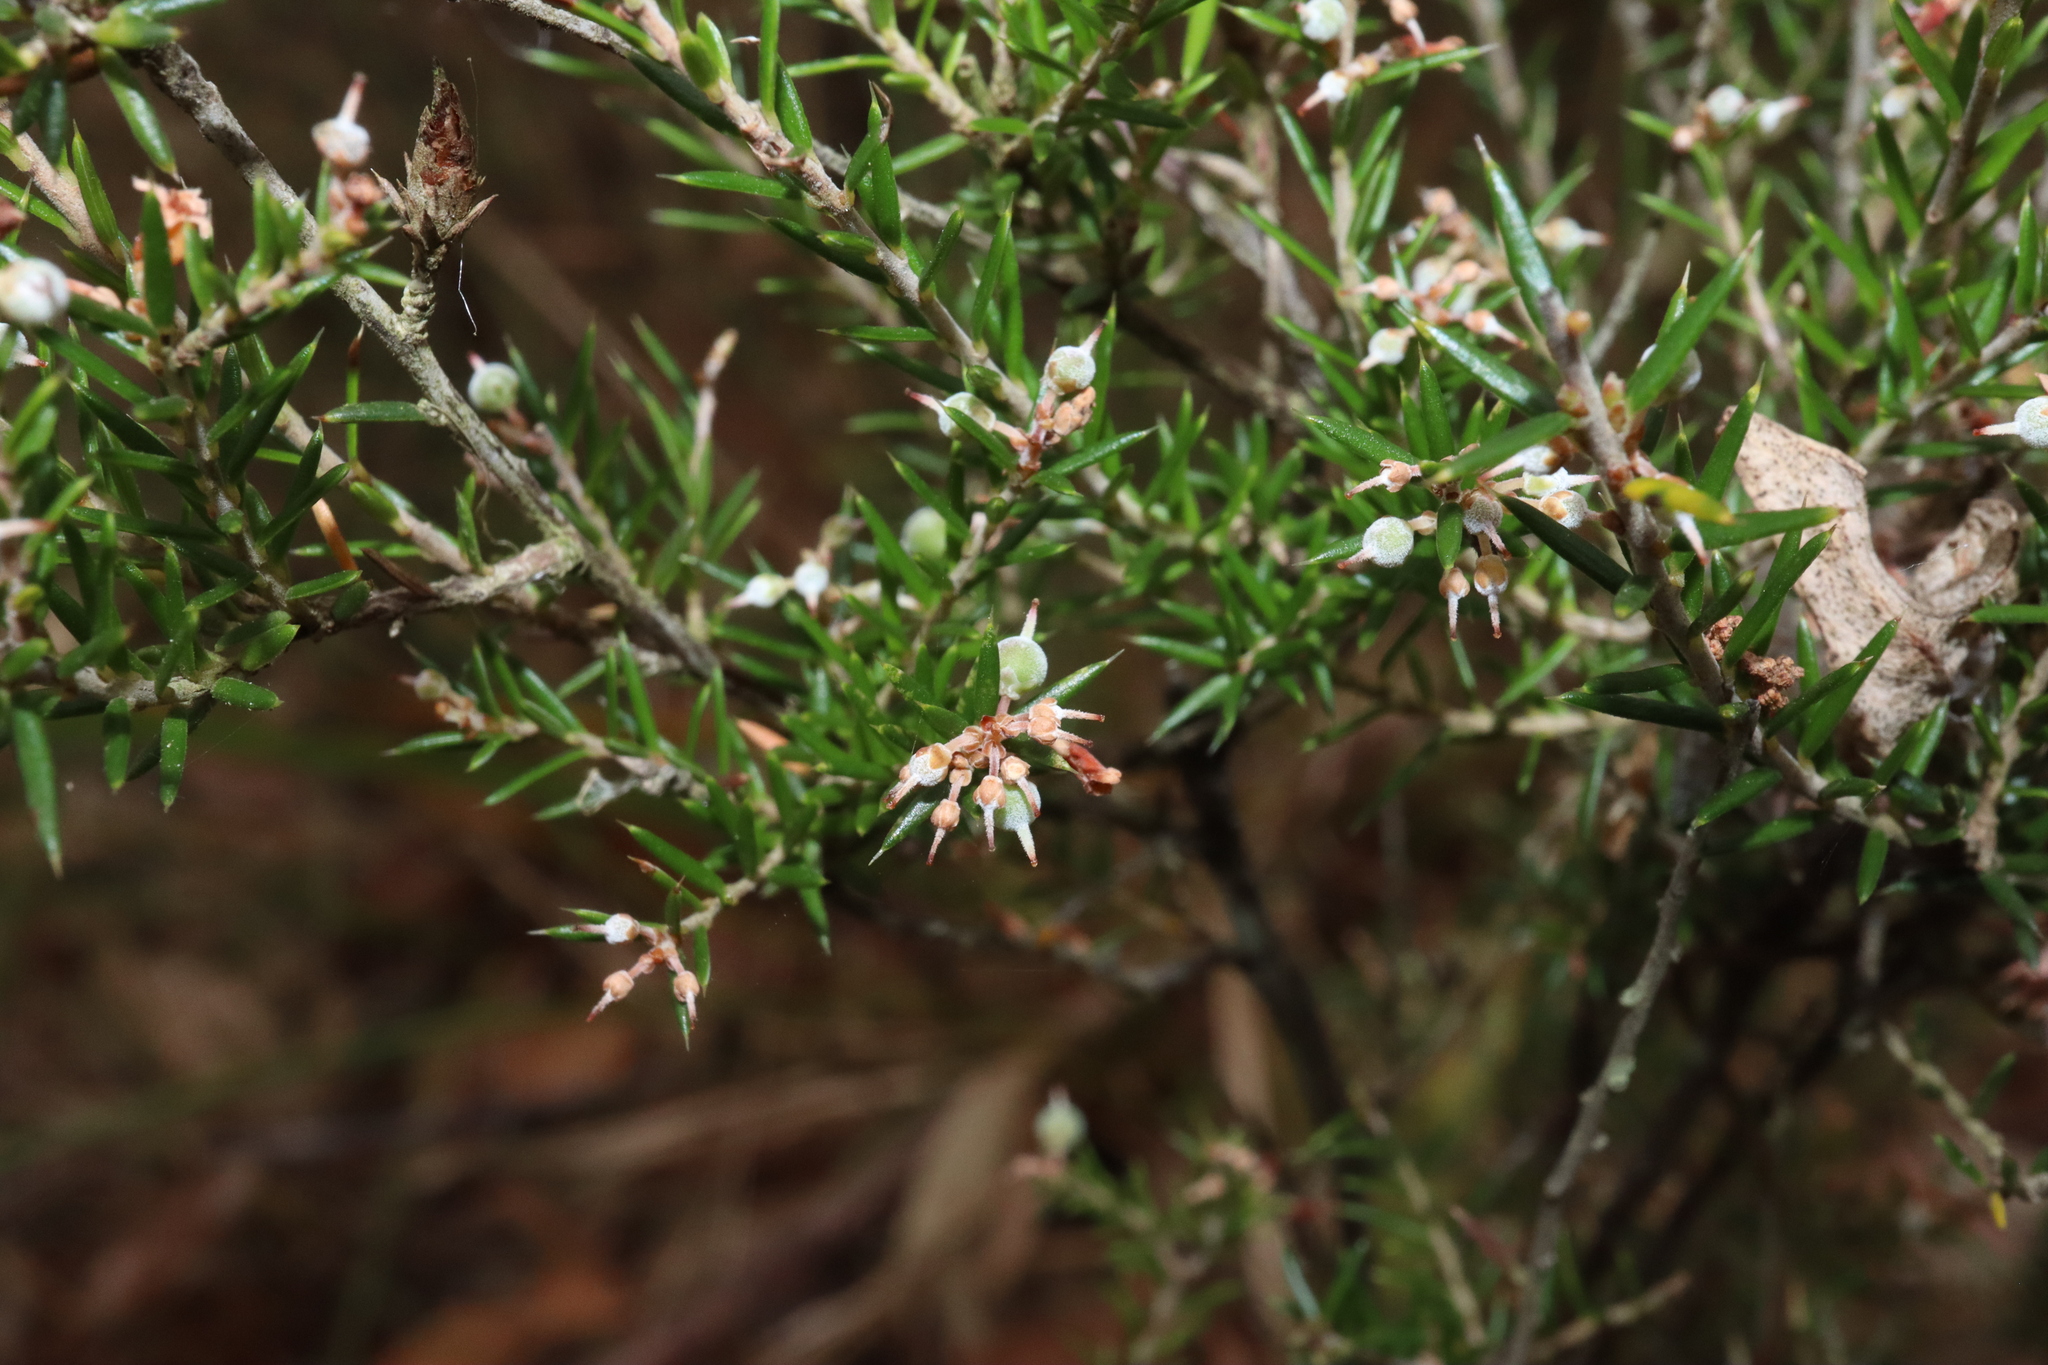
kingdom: Plantae
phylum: Tracheophyta
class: Magnoliopsida
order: Ericales
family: Ericaceae
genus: Lissanthe
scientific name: Lissanthe strigosa
